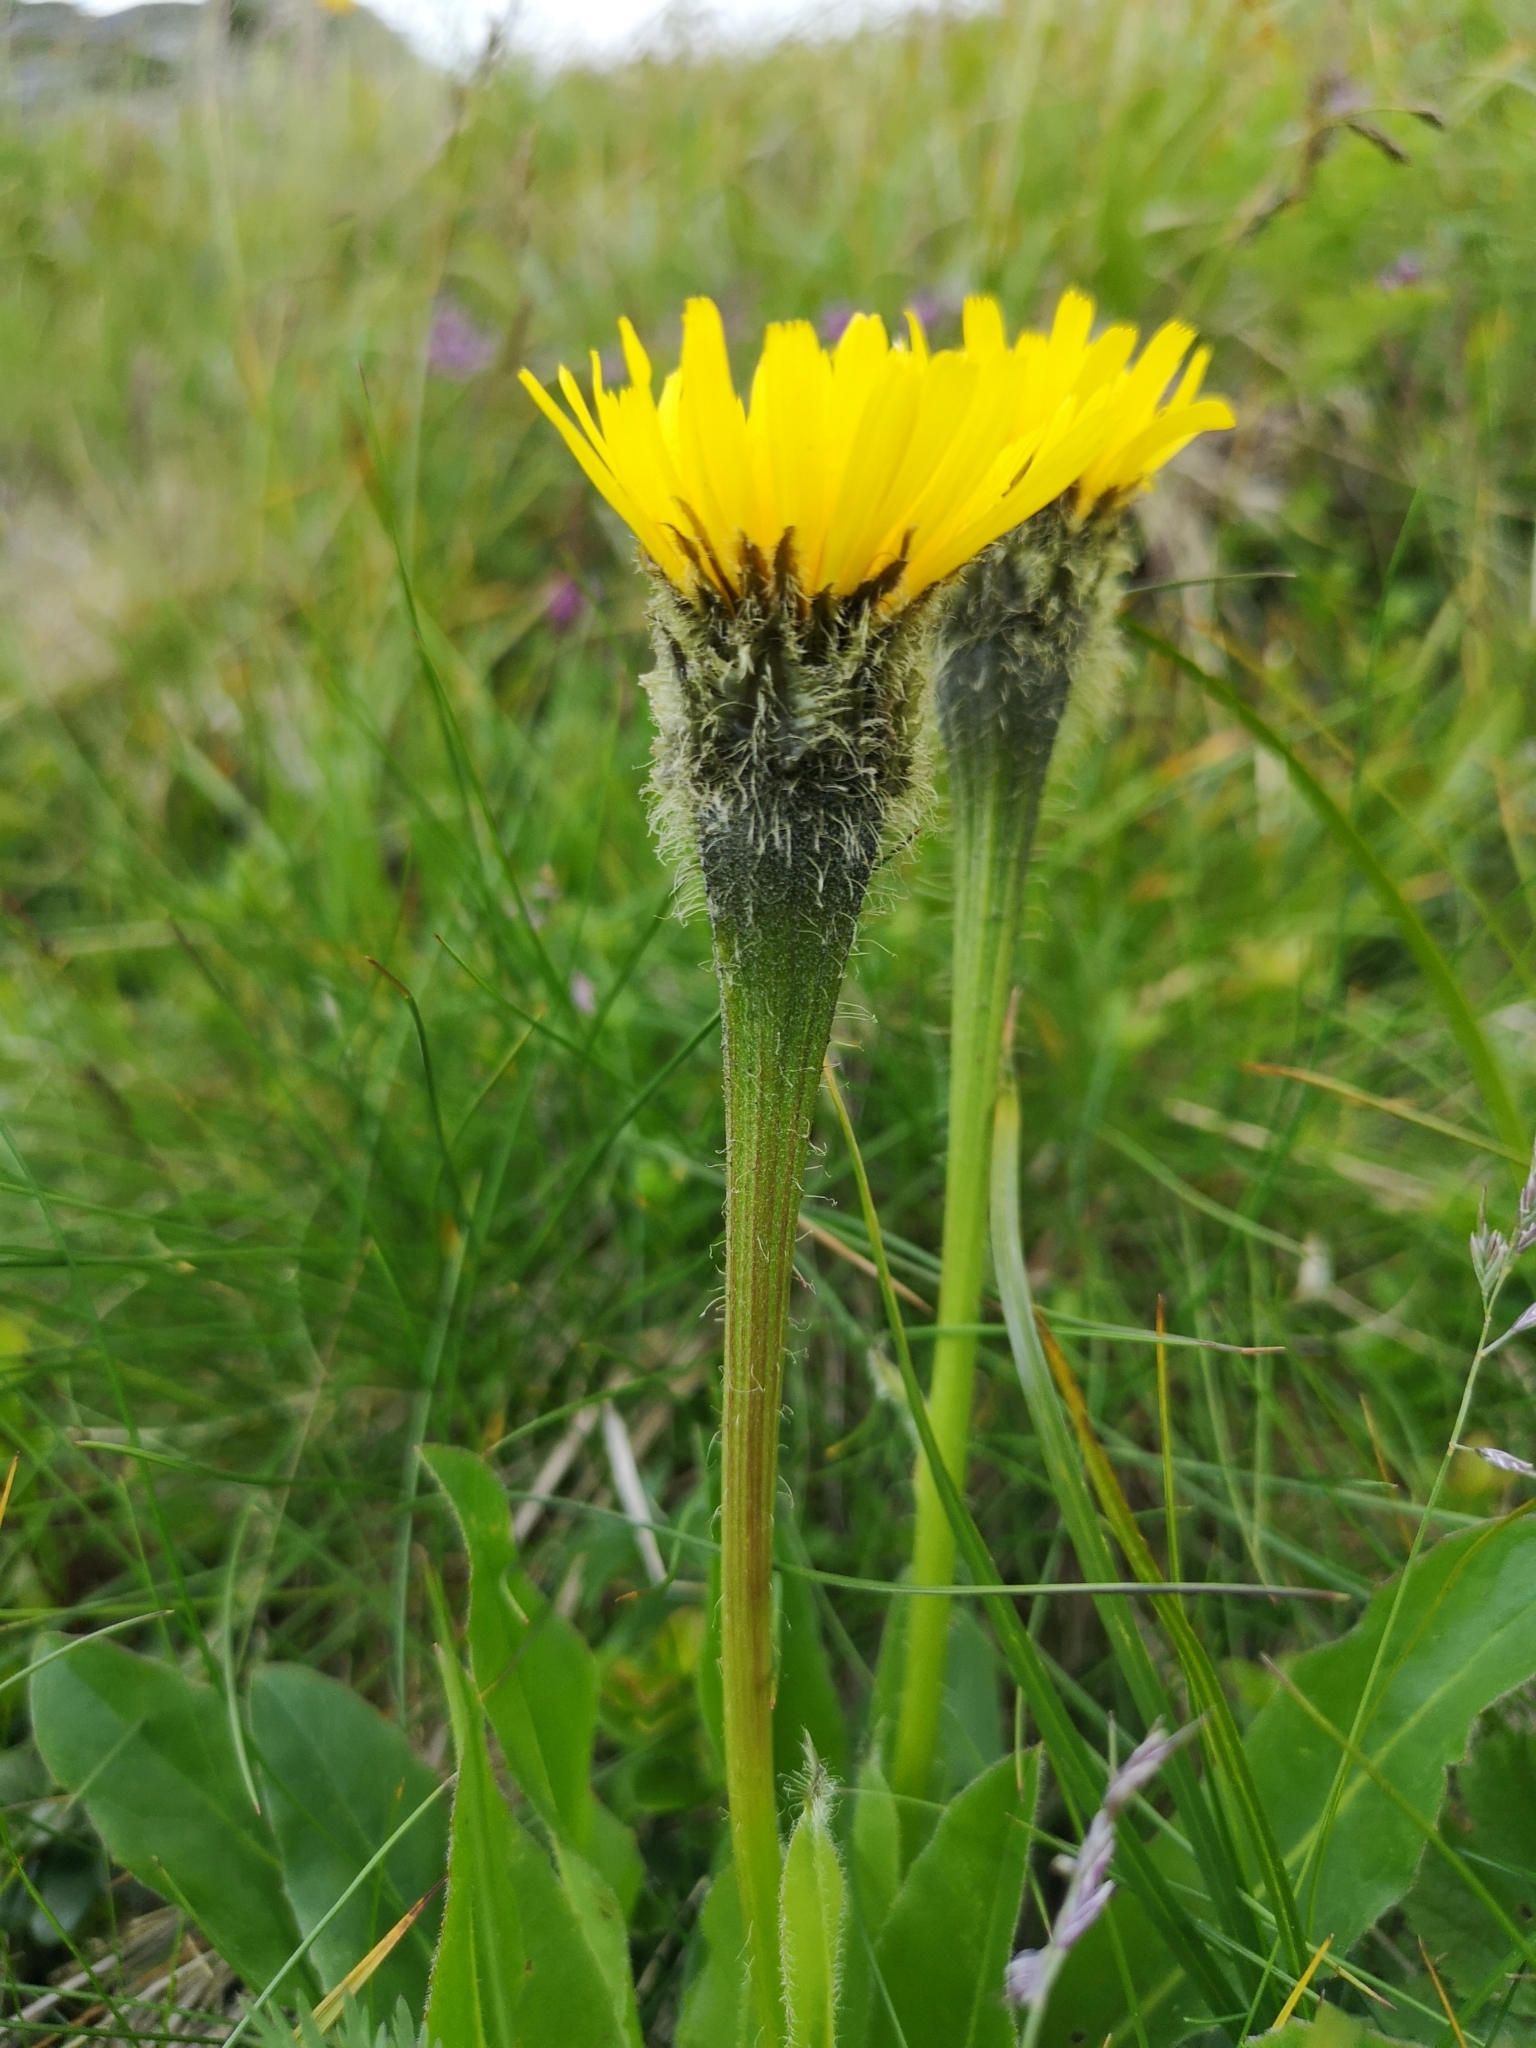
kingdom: Plantae
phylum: Tracheophyta
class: Magnoliopsida
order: Asterales
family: Asteraceae
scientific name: Asteraceae
